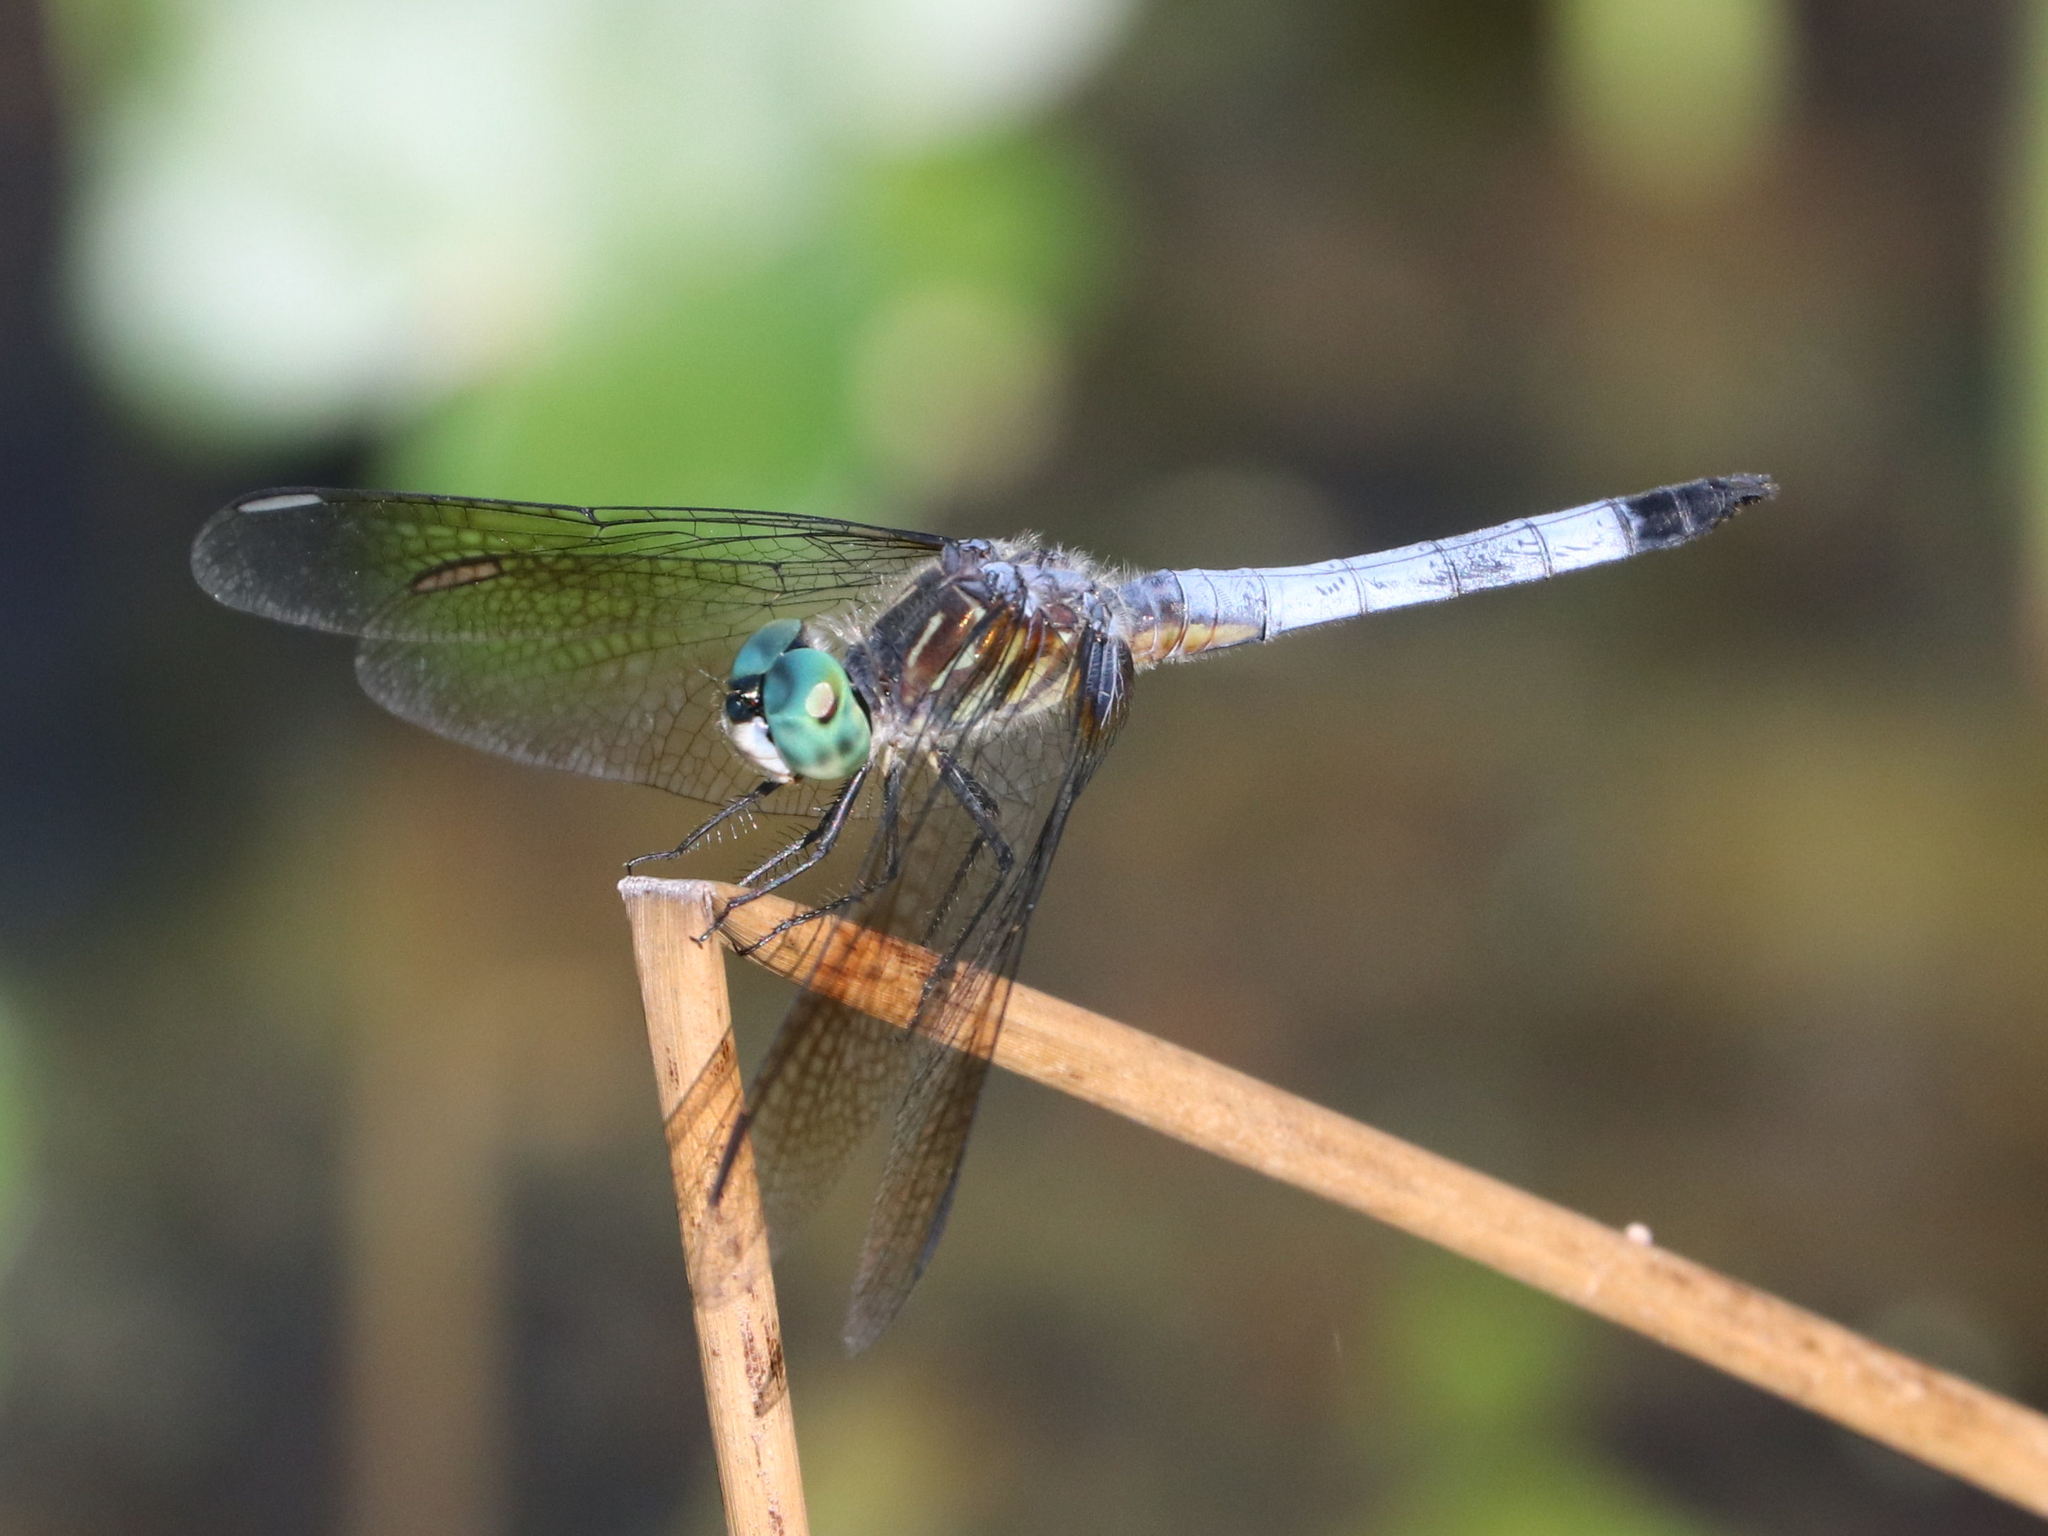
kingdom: Animalia
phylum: Arthropoda
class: Insecta
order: Odonata
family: Libellulidae
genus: Pachydiplax
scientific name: Pachydiplax longipennis
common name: Blue dasher
